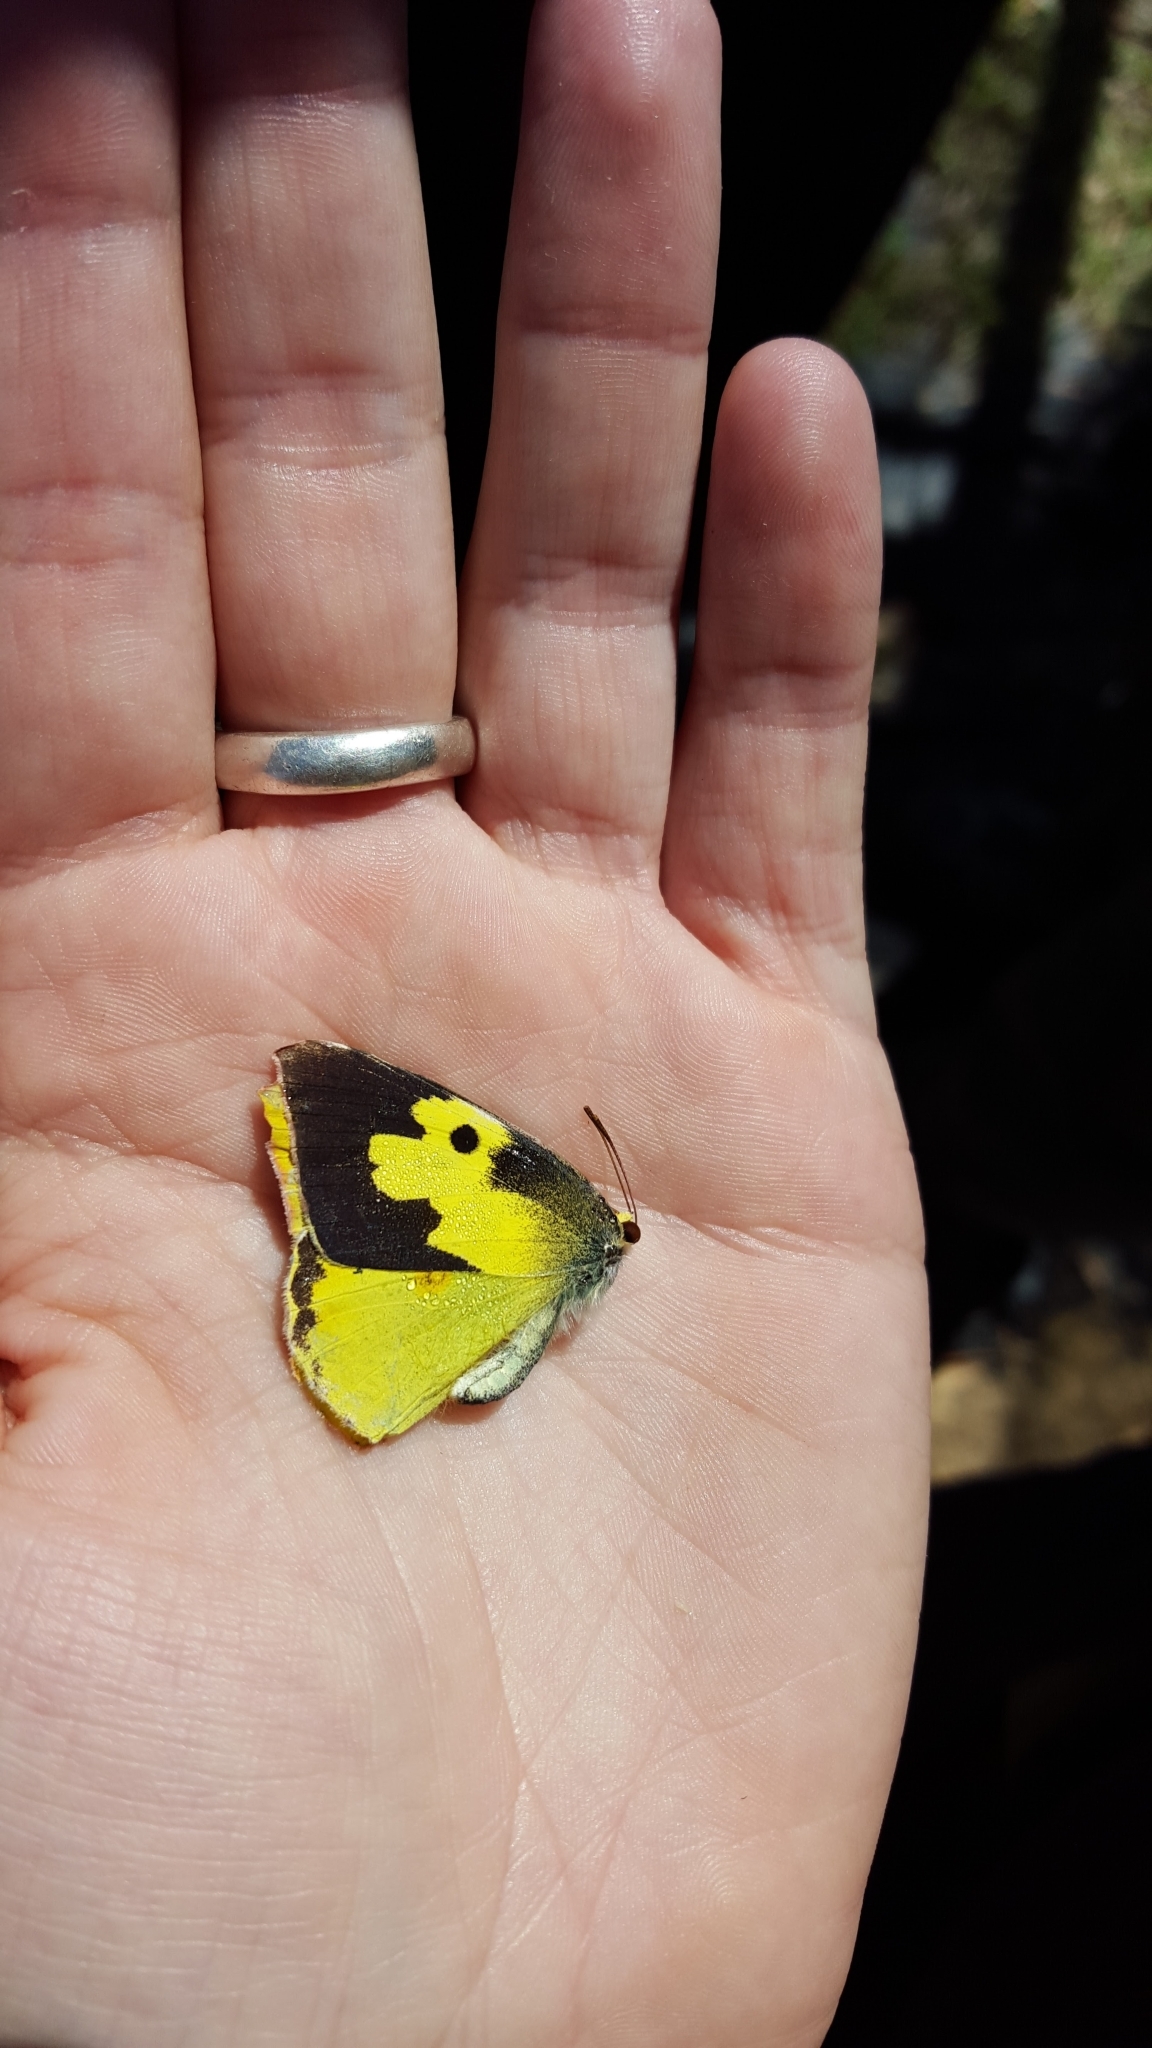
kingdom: Animalia
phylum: Arthropoda
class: Insecta
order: Lepidoptera
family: Pieridae
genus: Zerene
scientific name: Zerene cesonia
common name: Southern dogface
